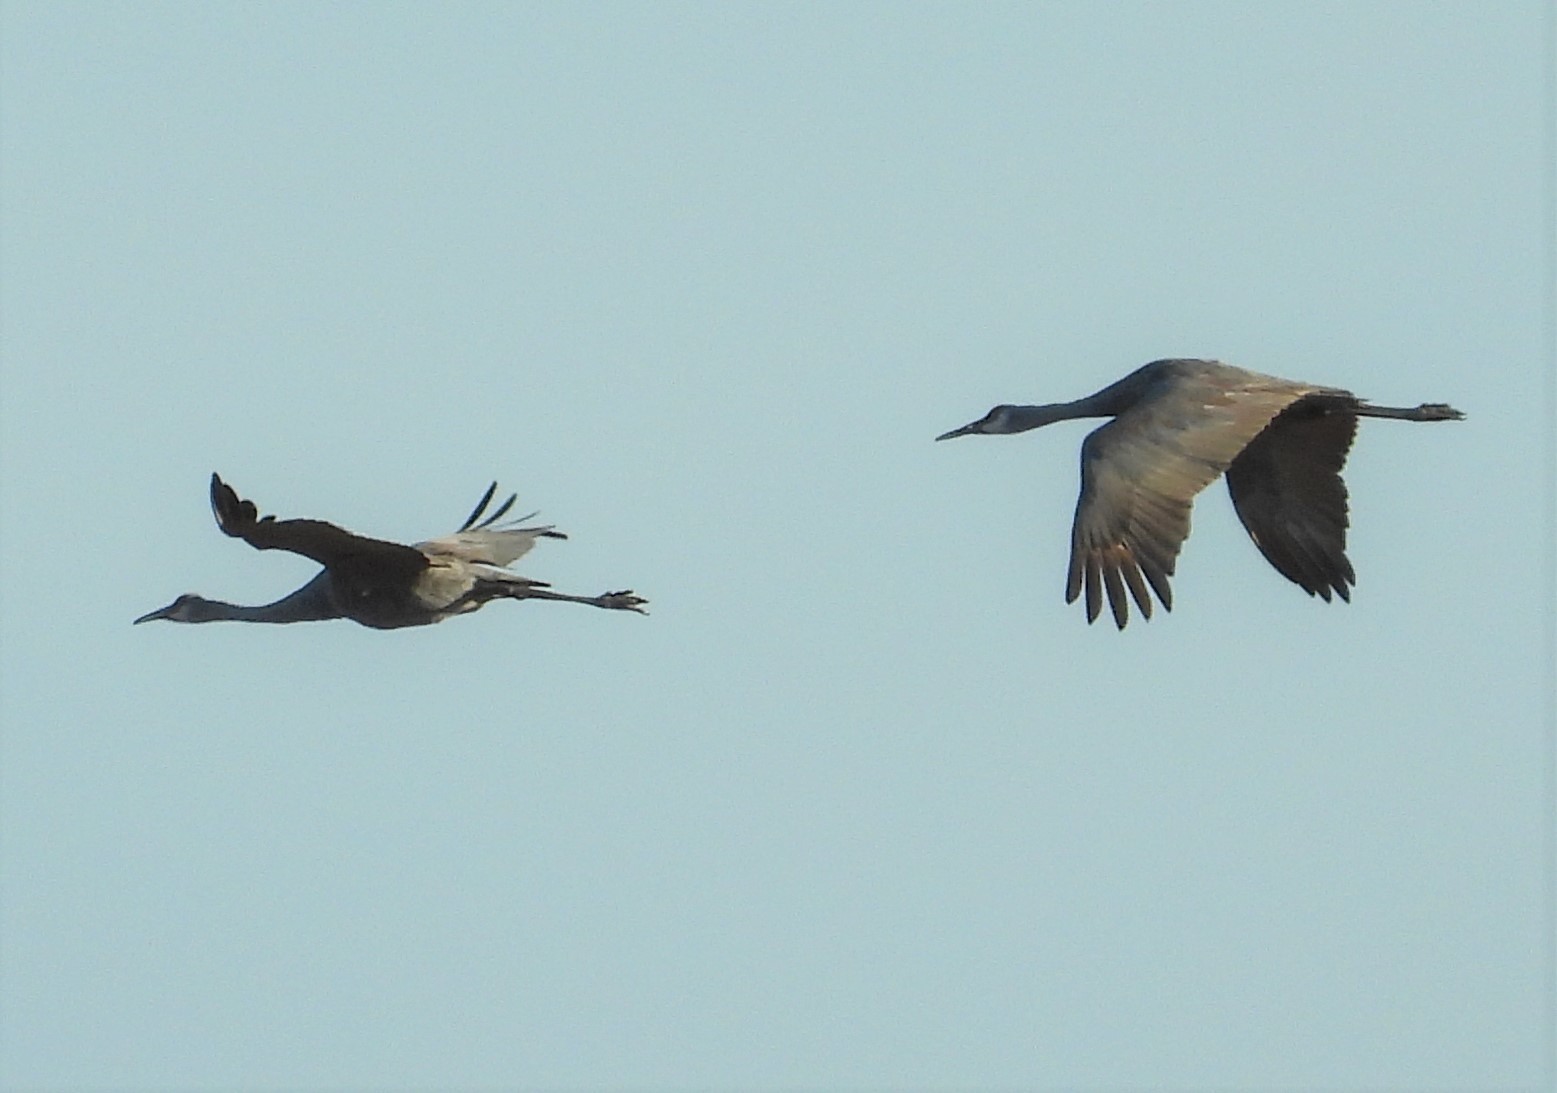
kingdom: Animalia
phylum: Chordata
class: Aves
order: Gruiformes
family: Gruidae
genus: Grus
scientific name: Grus canadensis
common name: Sandhill crane
